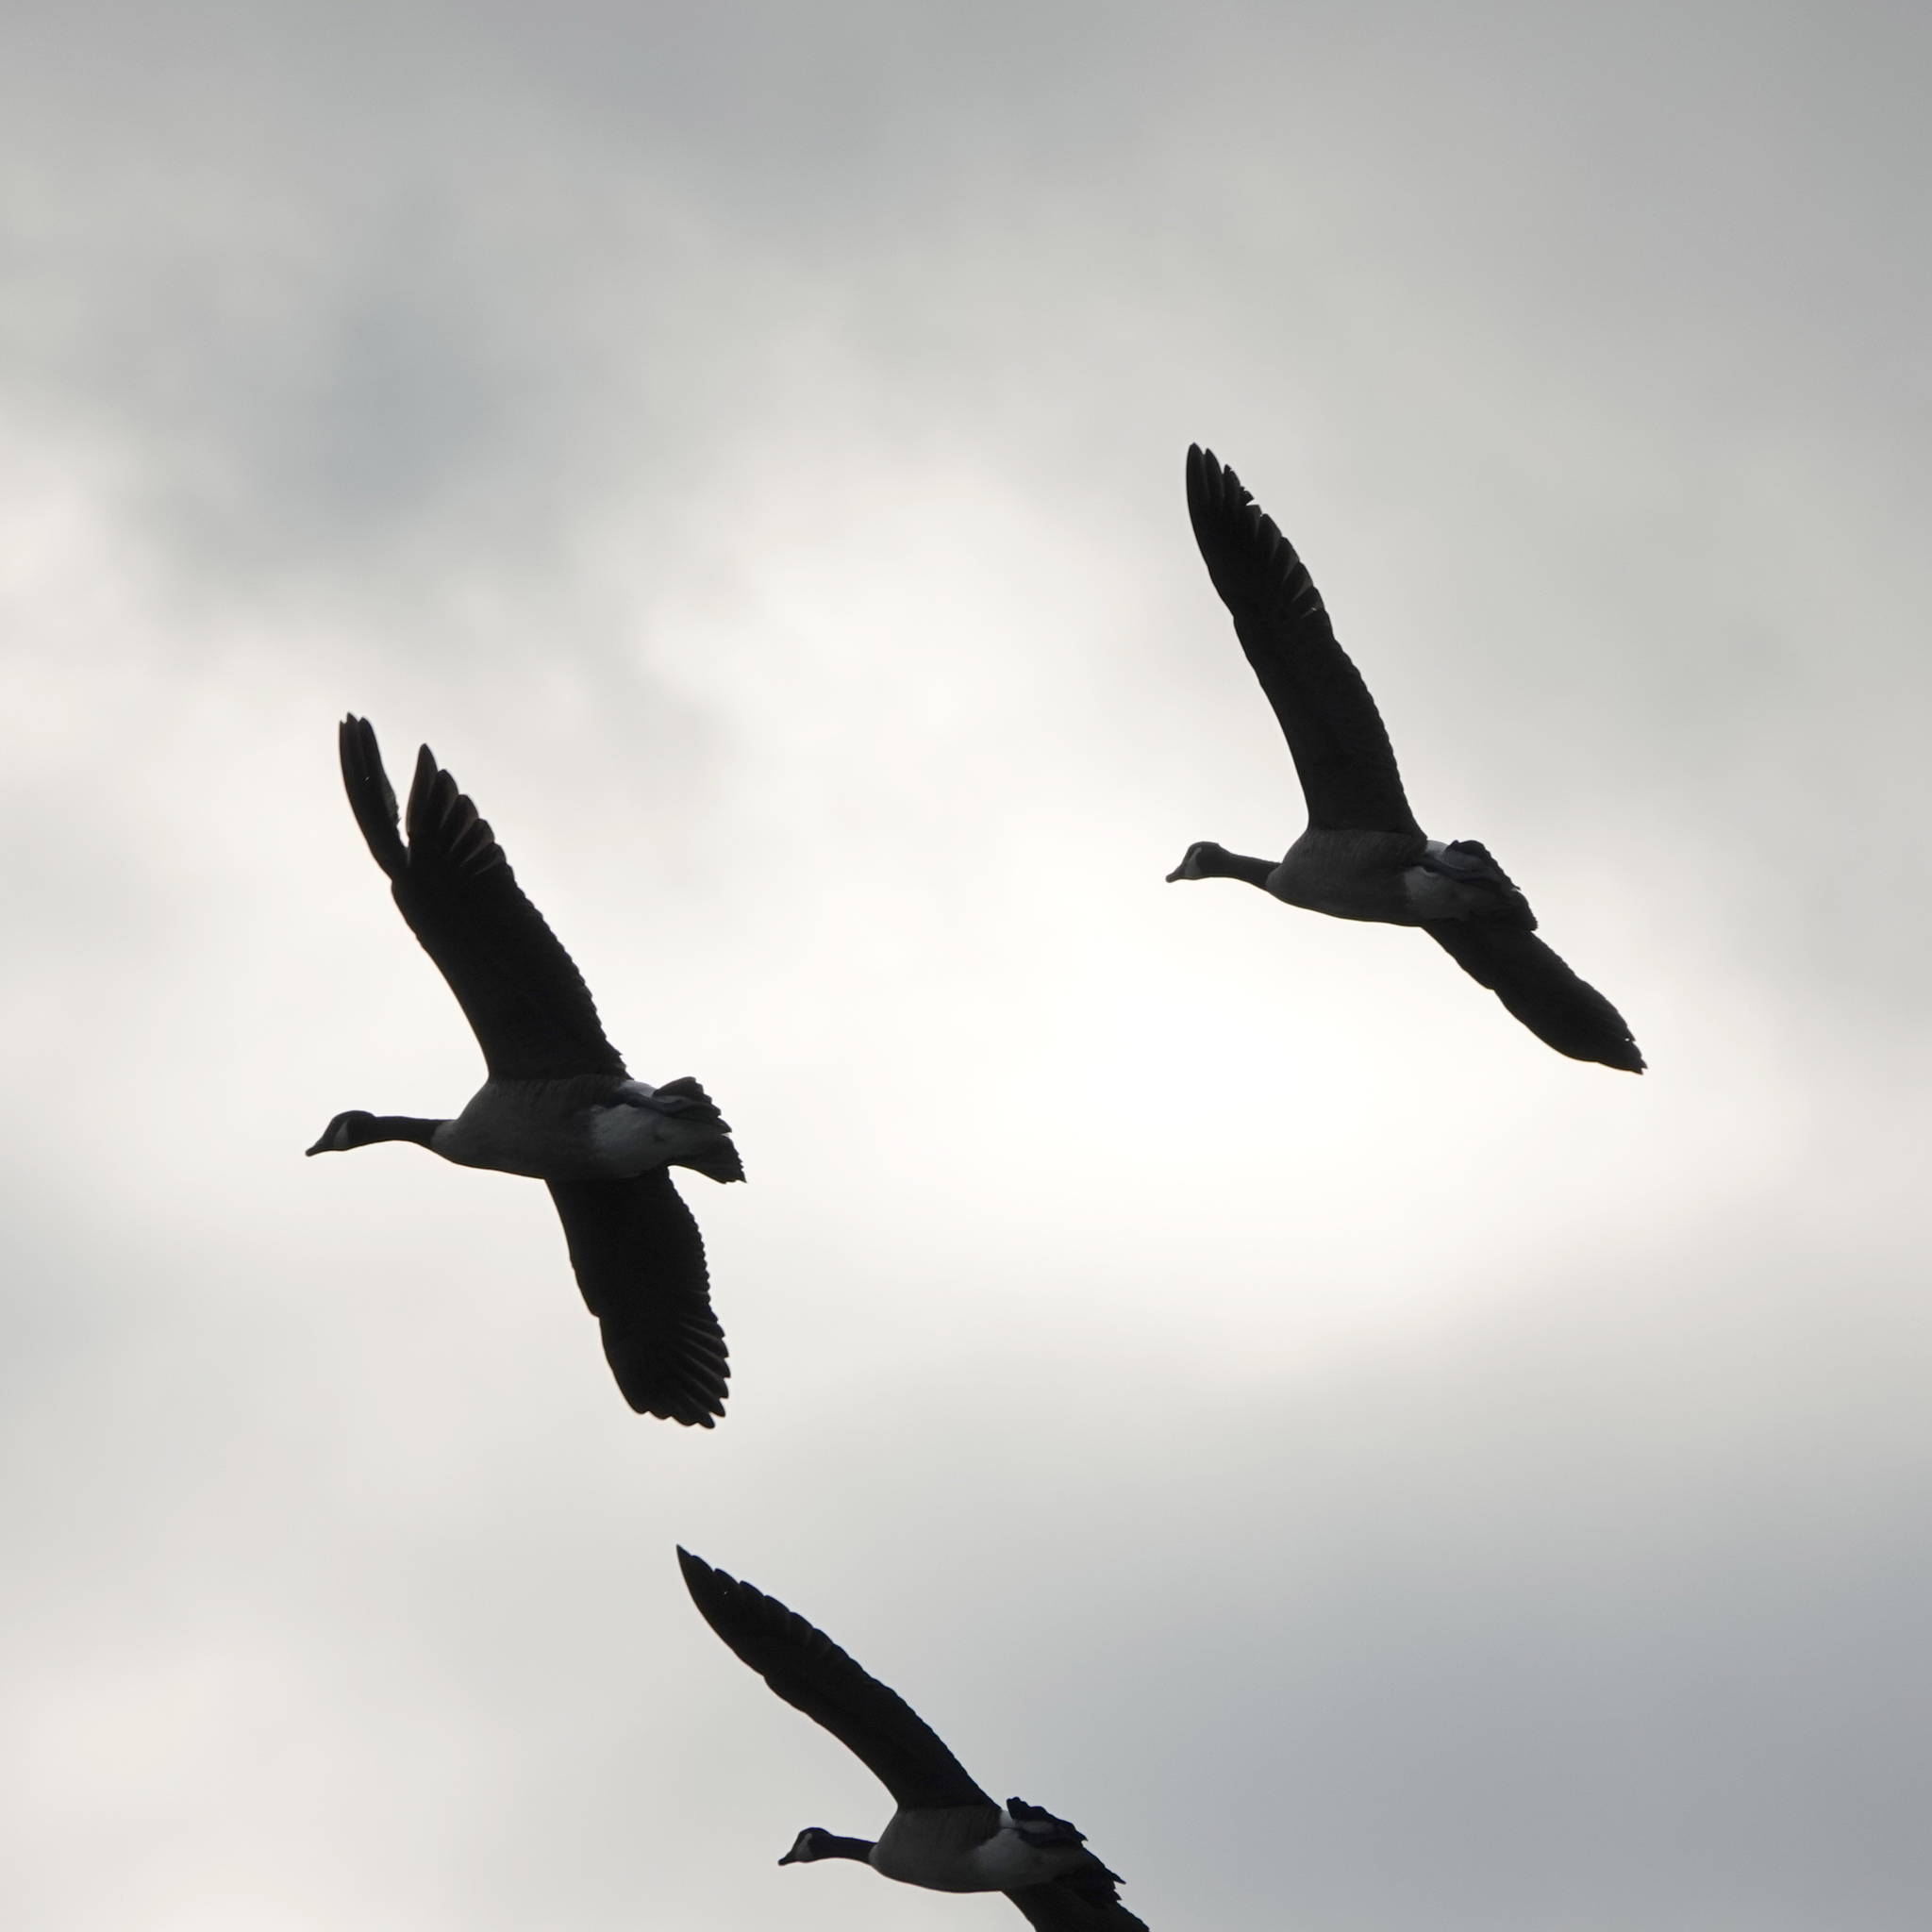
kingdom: Animalia
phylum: Chordata
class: Aves
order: Anseriformes
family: Anatidae
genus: Branta
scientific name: Branta canadensis
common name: Canada goose
